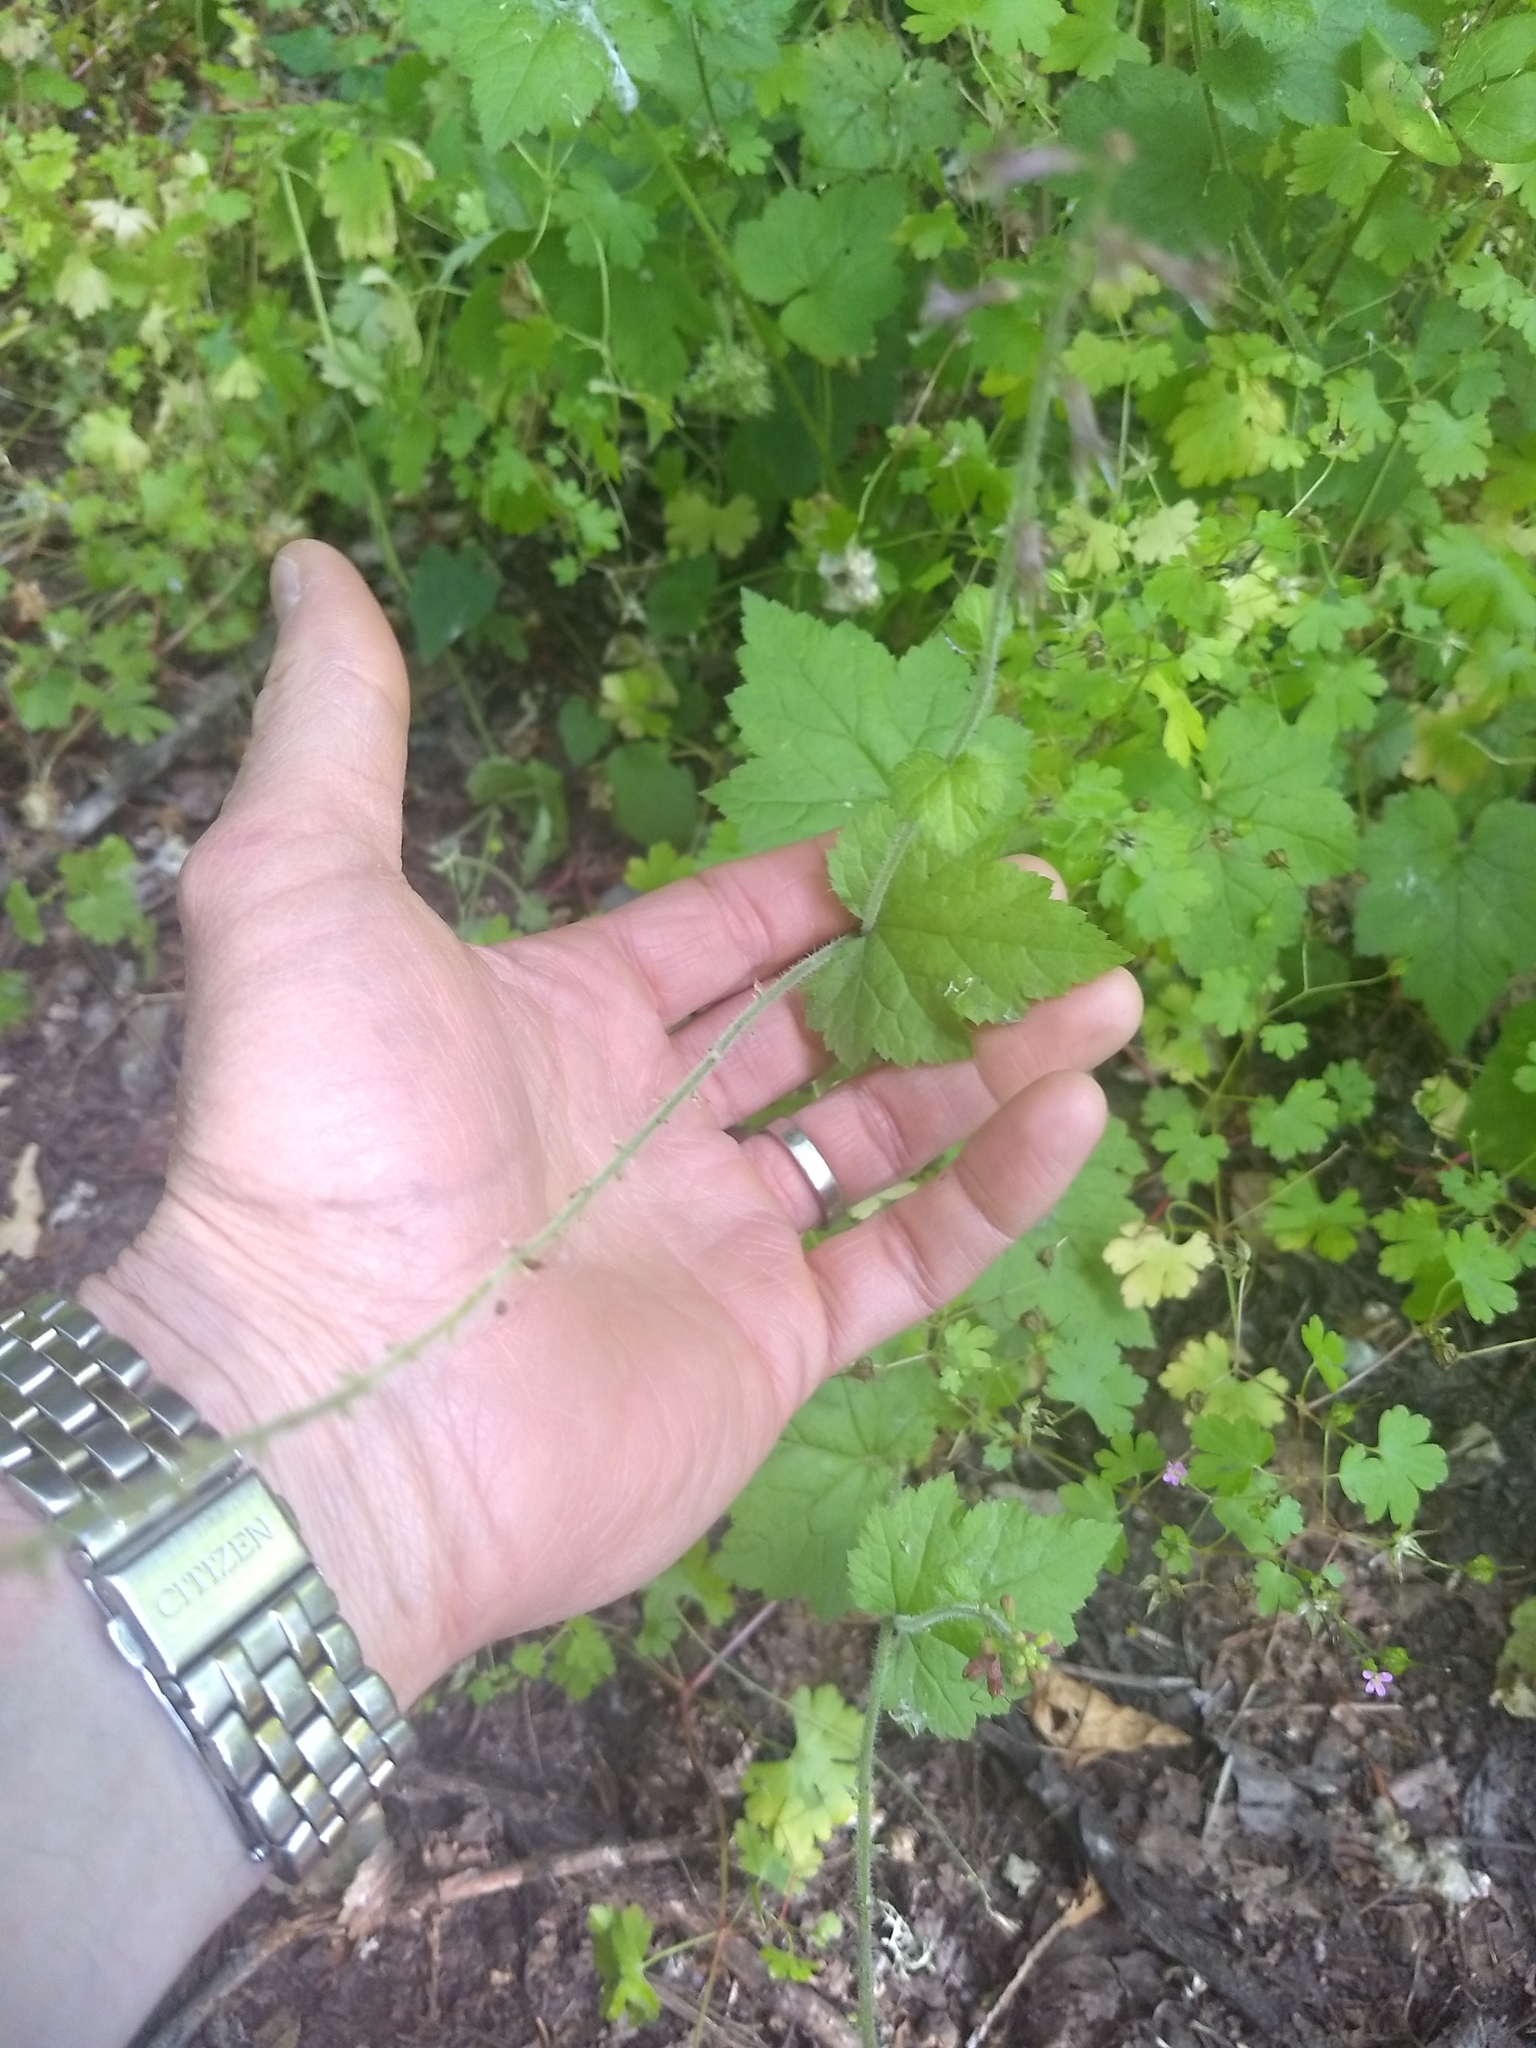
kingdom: Plantae
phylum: Tracheophyta
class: Magnoliopsida
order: Saxifragales
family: Saxifragaceae
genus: Tolmiea
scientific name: Tolmiea menziesii
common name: Pick-a-back-plant
